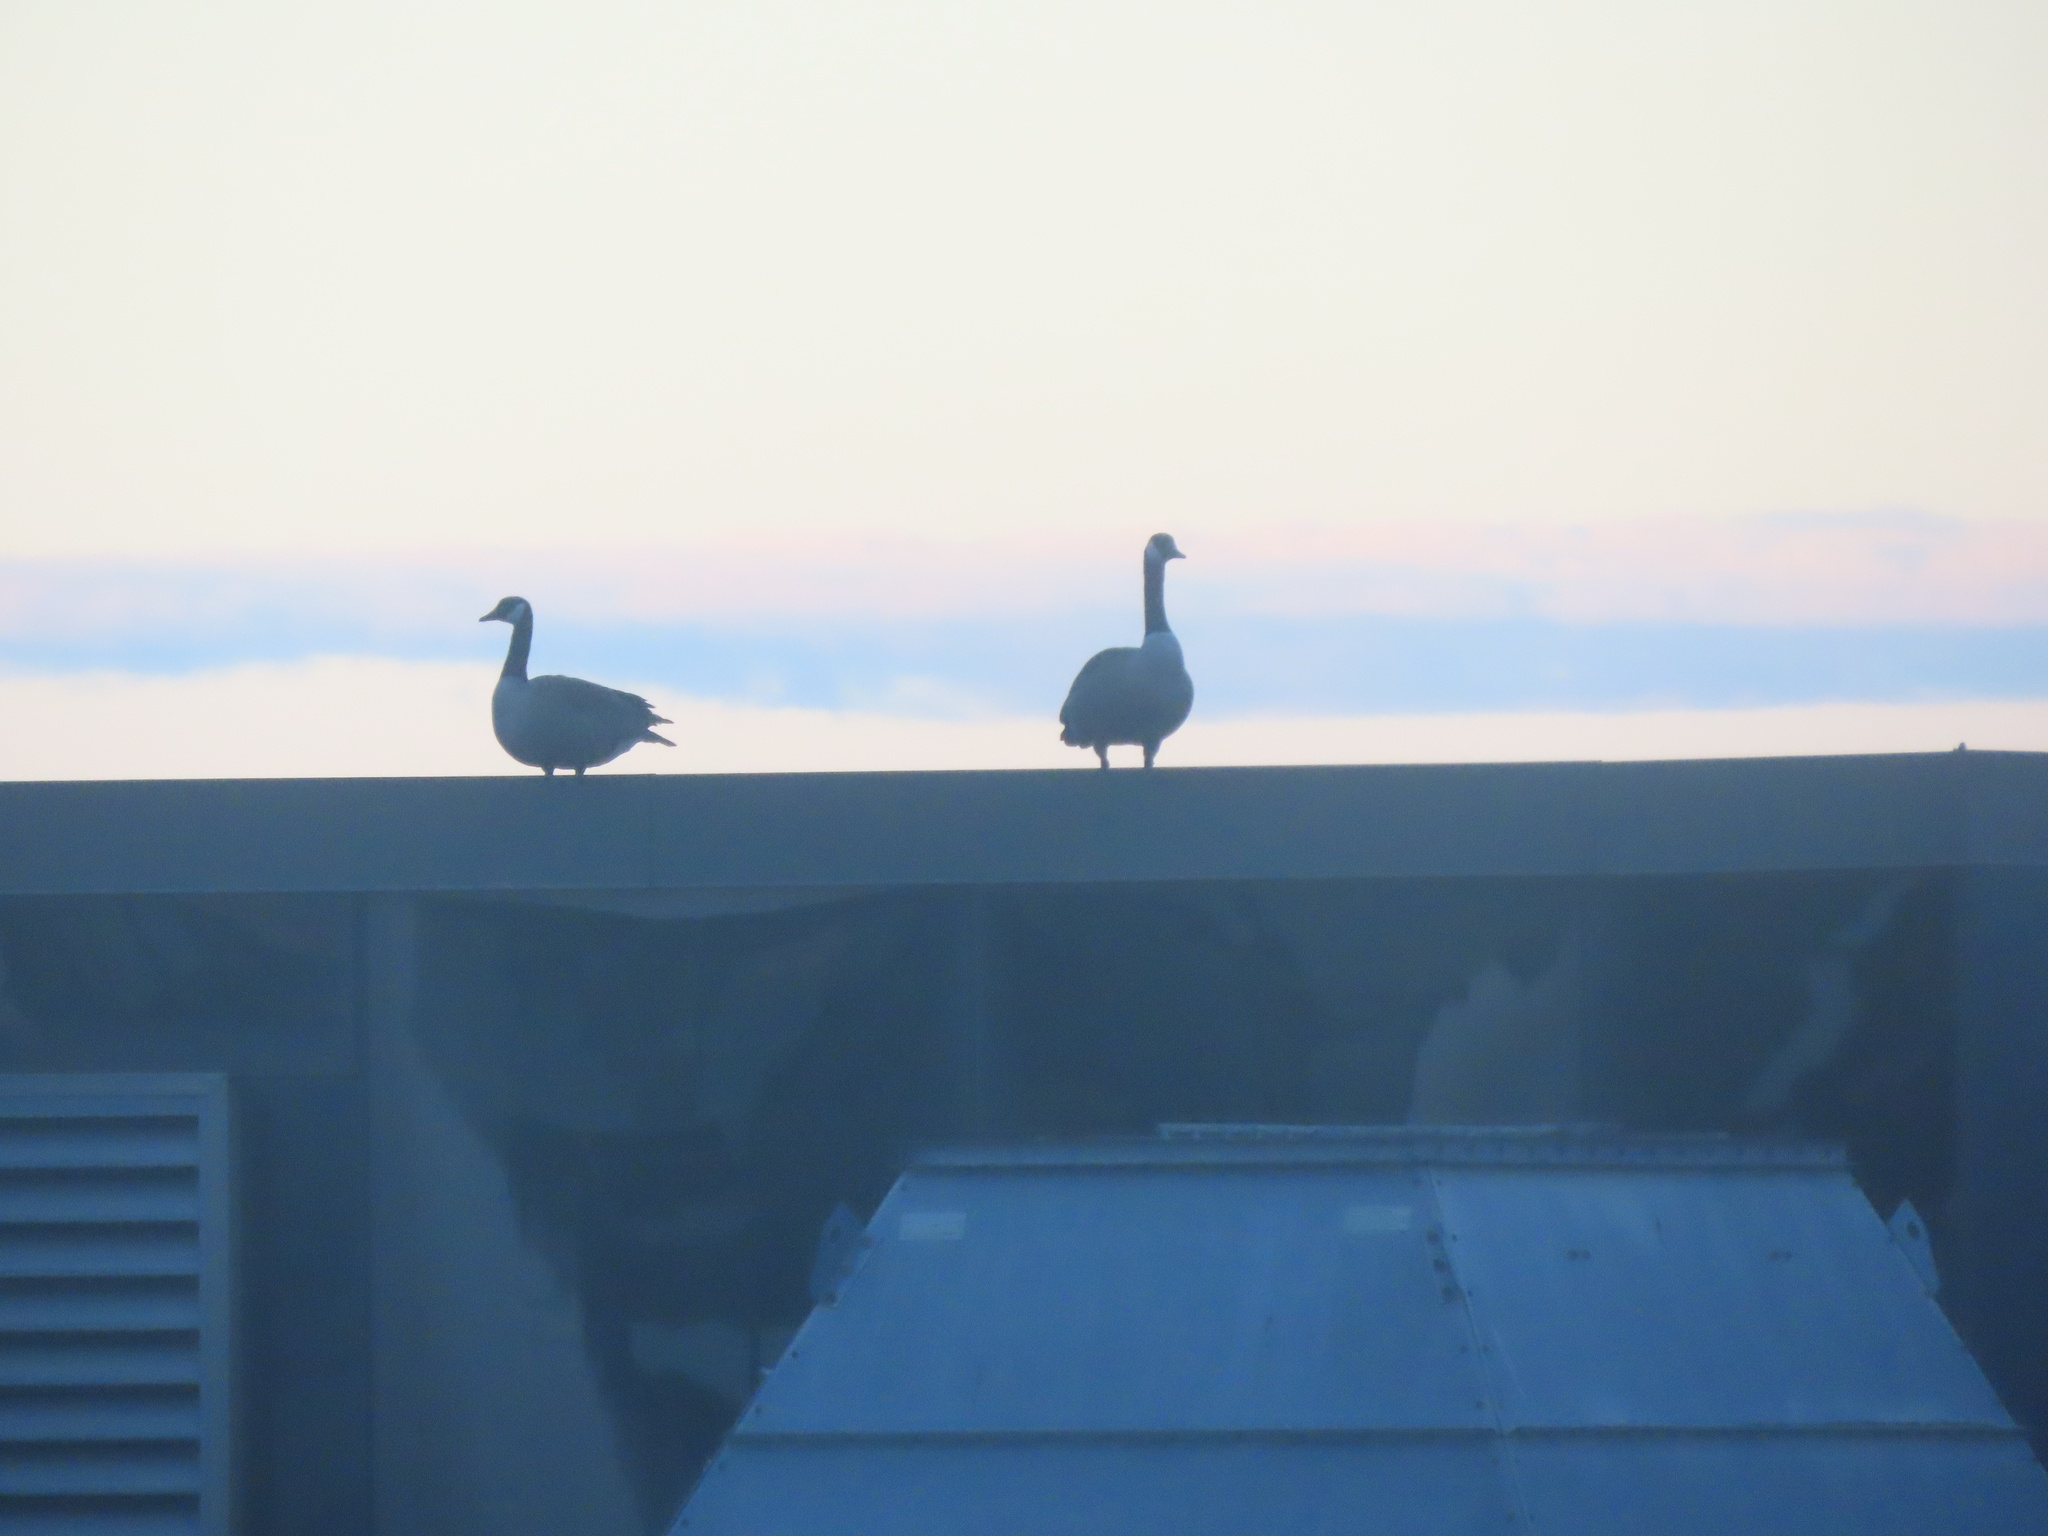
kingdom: Animalia
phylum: Chordata
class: Aves
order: Anseriformes
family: Anatidae
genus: Branta
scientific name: Branta canadensis
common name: Canada goose
